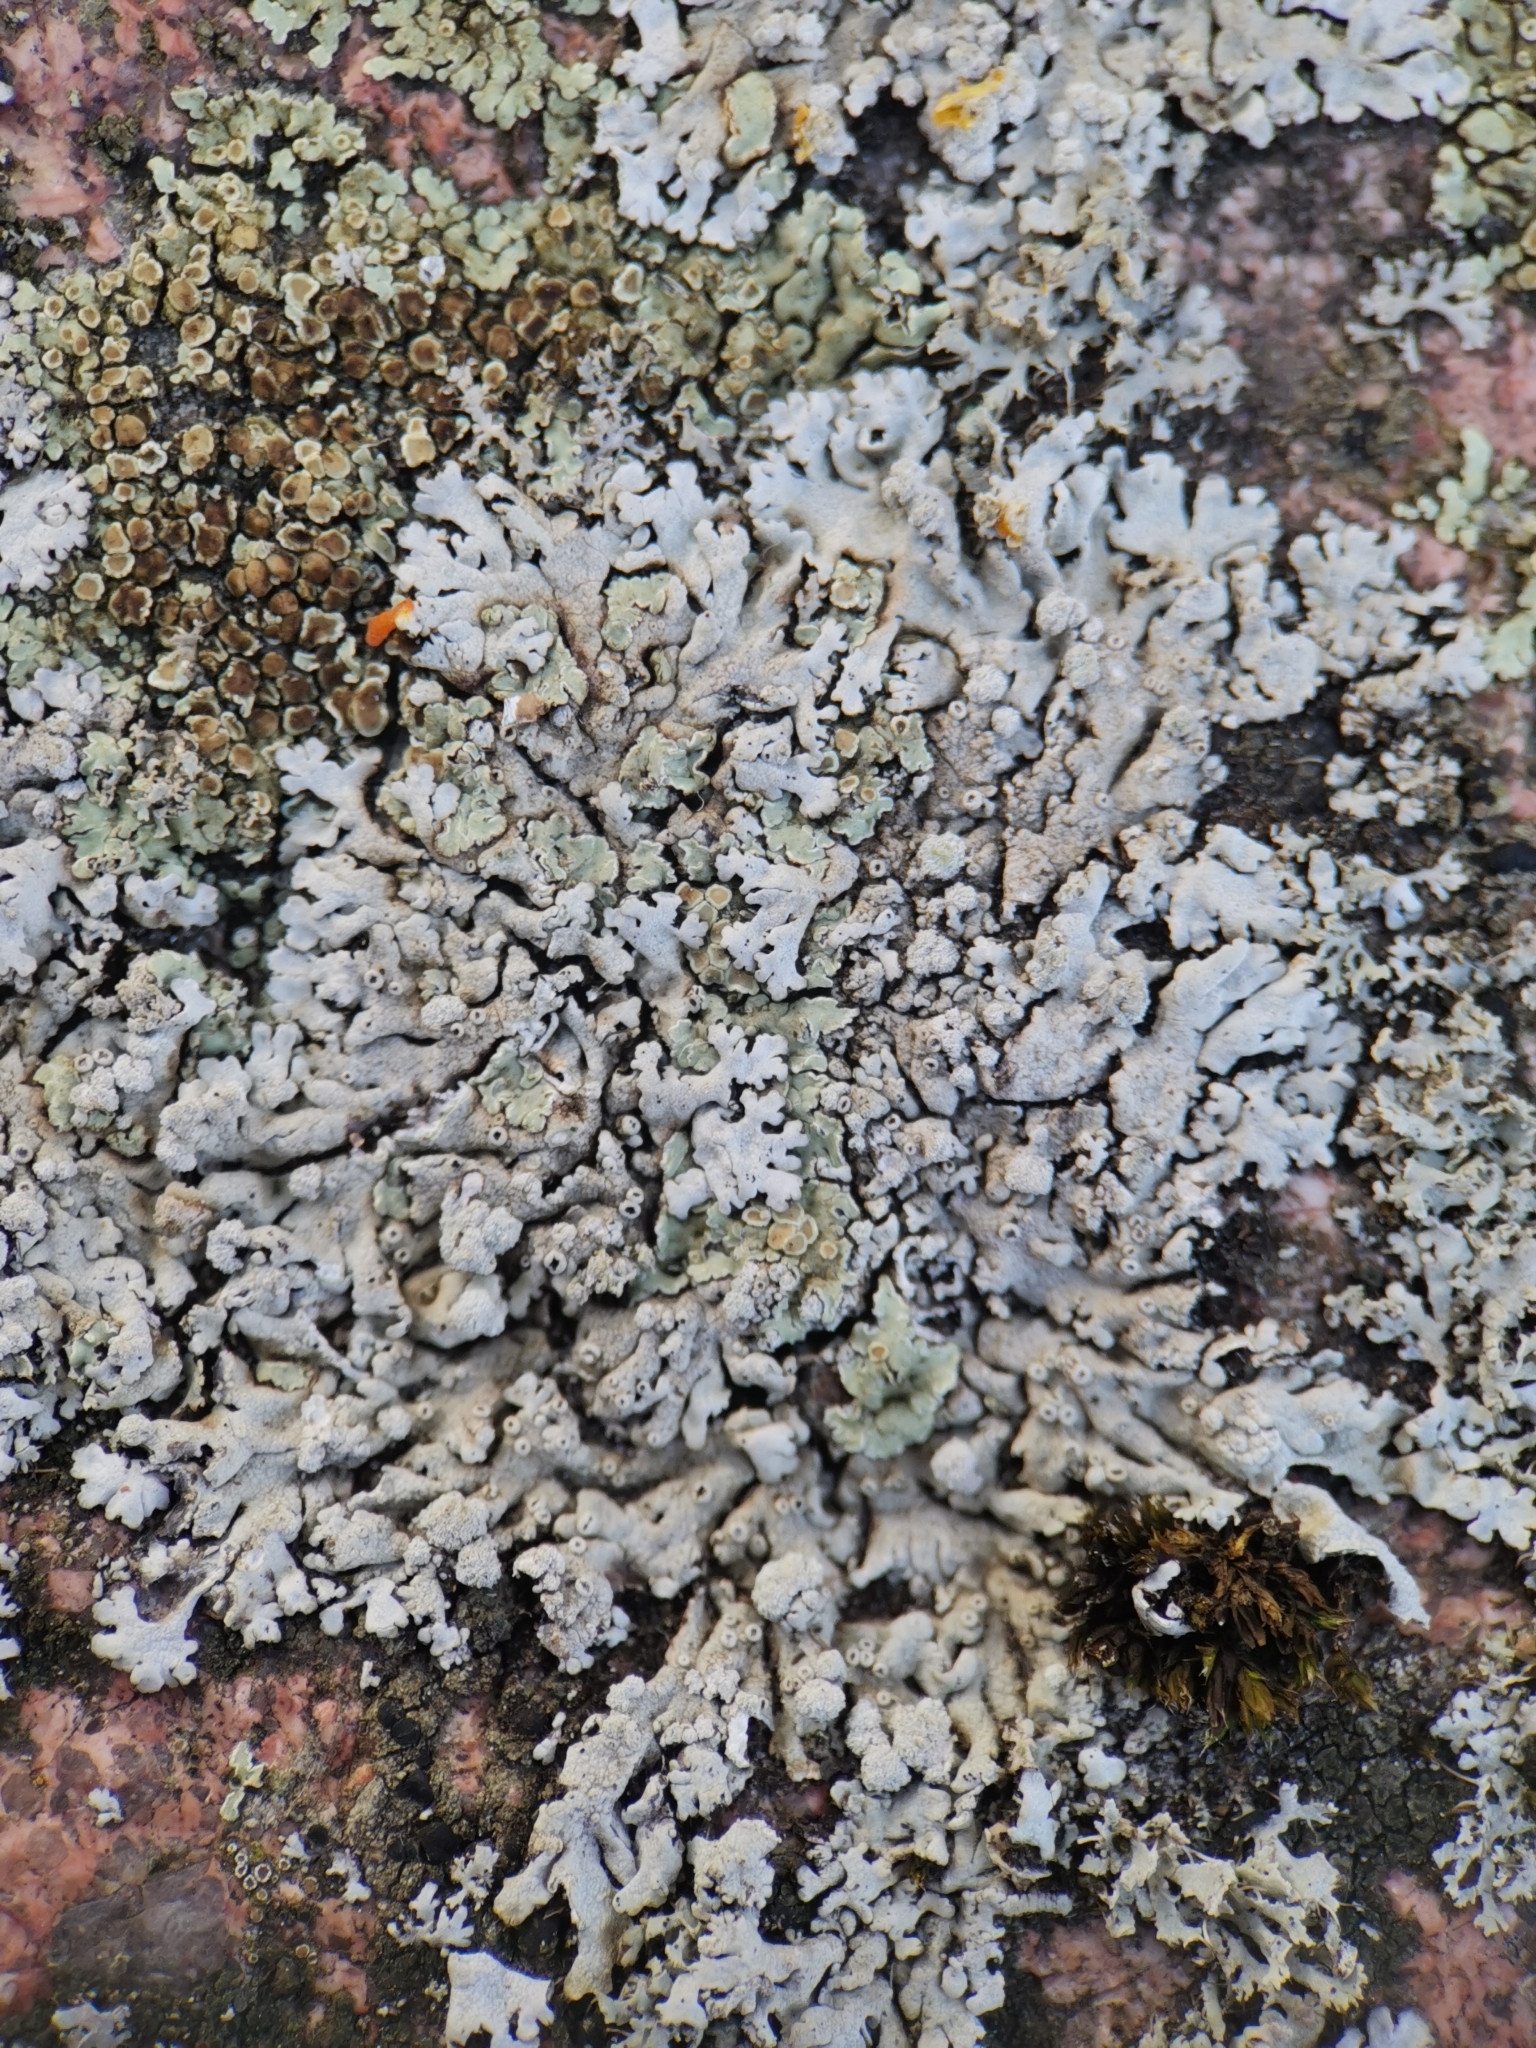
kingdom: Fungi
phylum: Ascomycota
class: Lecanoromycetes
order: Caliciales
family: Physciaceae
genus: Physcia
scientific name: Physcia caesia
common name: Blue-gray rosette lichen
